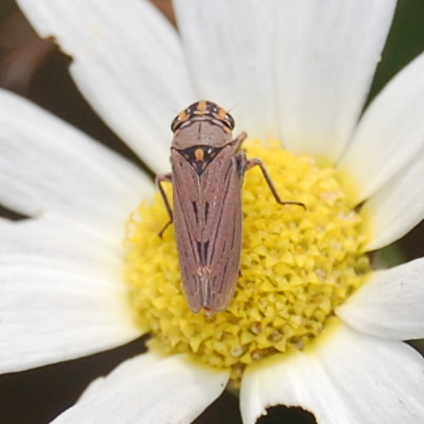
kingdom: Animalia
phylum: Arthropoda
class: Insecta
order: Hemiptera
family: Cicadellidae
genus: Dechacona
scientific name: Dechacona missionum
